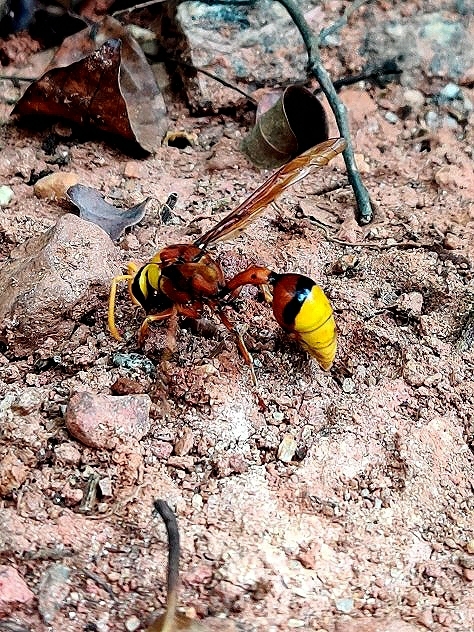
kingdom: Animalia
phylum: Arthropoda
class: Insecta
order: Hymenoptera
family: Eumenidae
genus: Delta
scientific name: Delta pyriforme
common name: Wasp
